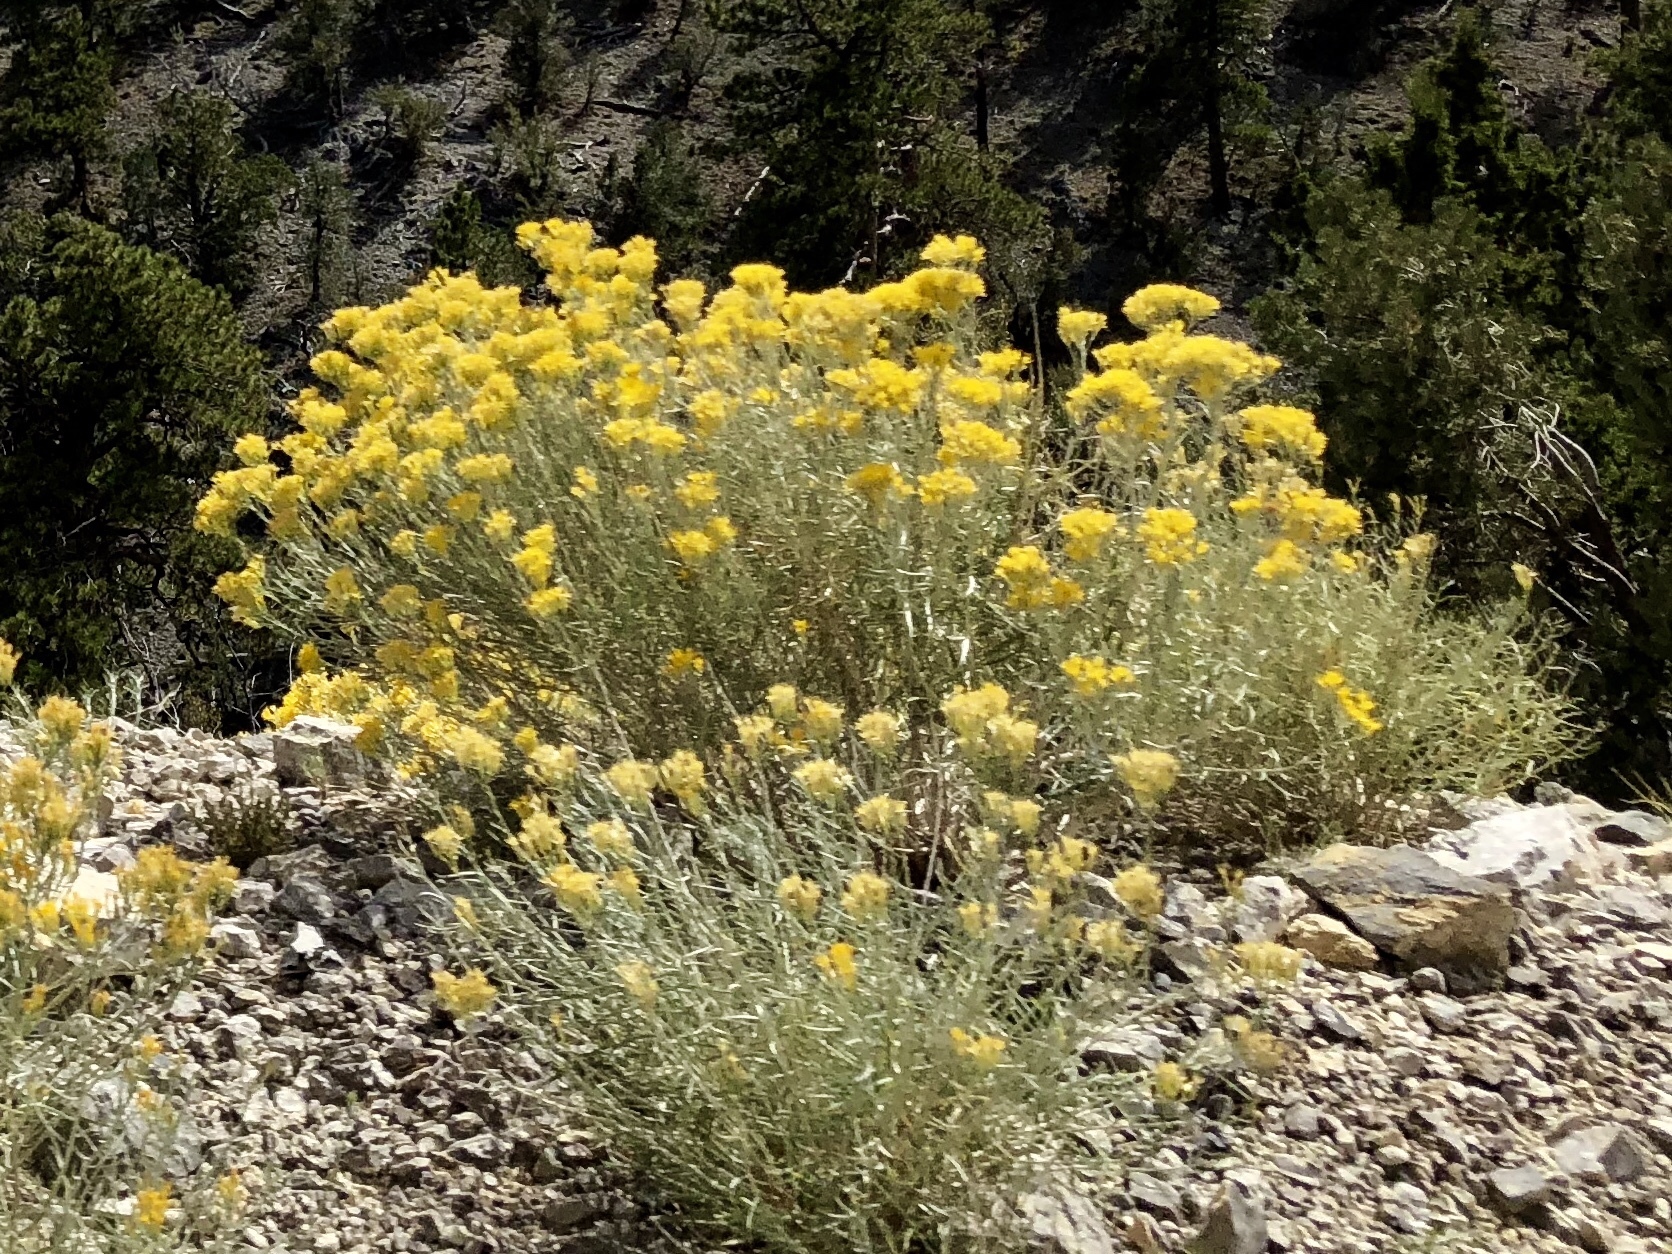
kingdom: Plantae
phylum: Tracheophyta
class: Magnoliopsida
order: Asterales
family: Asteraceae
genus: Ericameria
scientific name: Ericameria nauseosa
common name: Rubber rabbitbrush
